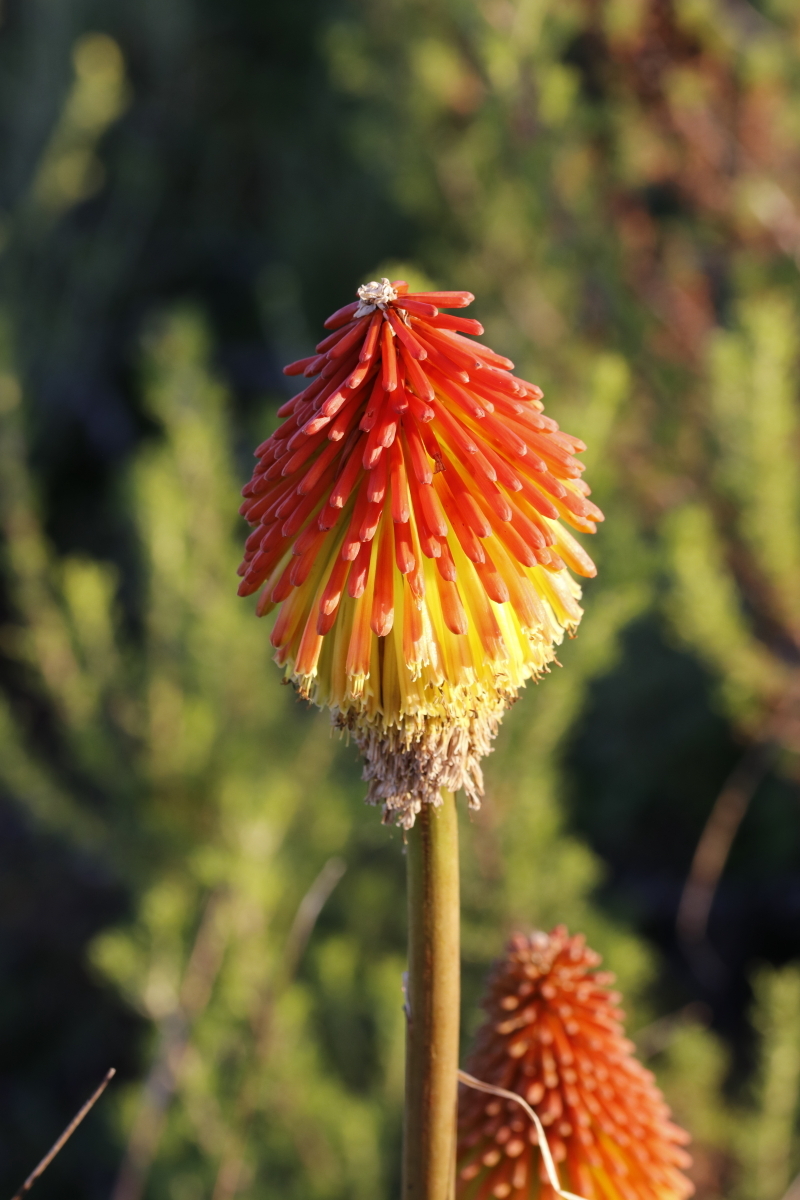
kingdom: Plantae
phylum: Tracheophyta
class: Liliopsida
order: Asparagales
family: Asphodelaceae
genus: Kniphofia
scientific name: Kniphofia uvaria
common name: Red-hot-poker
